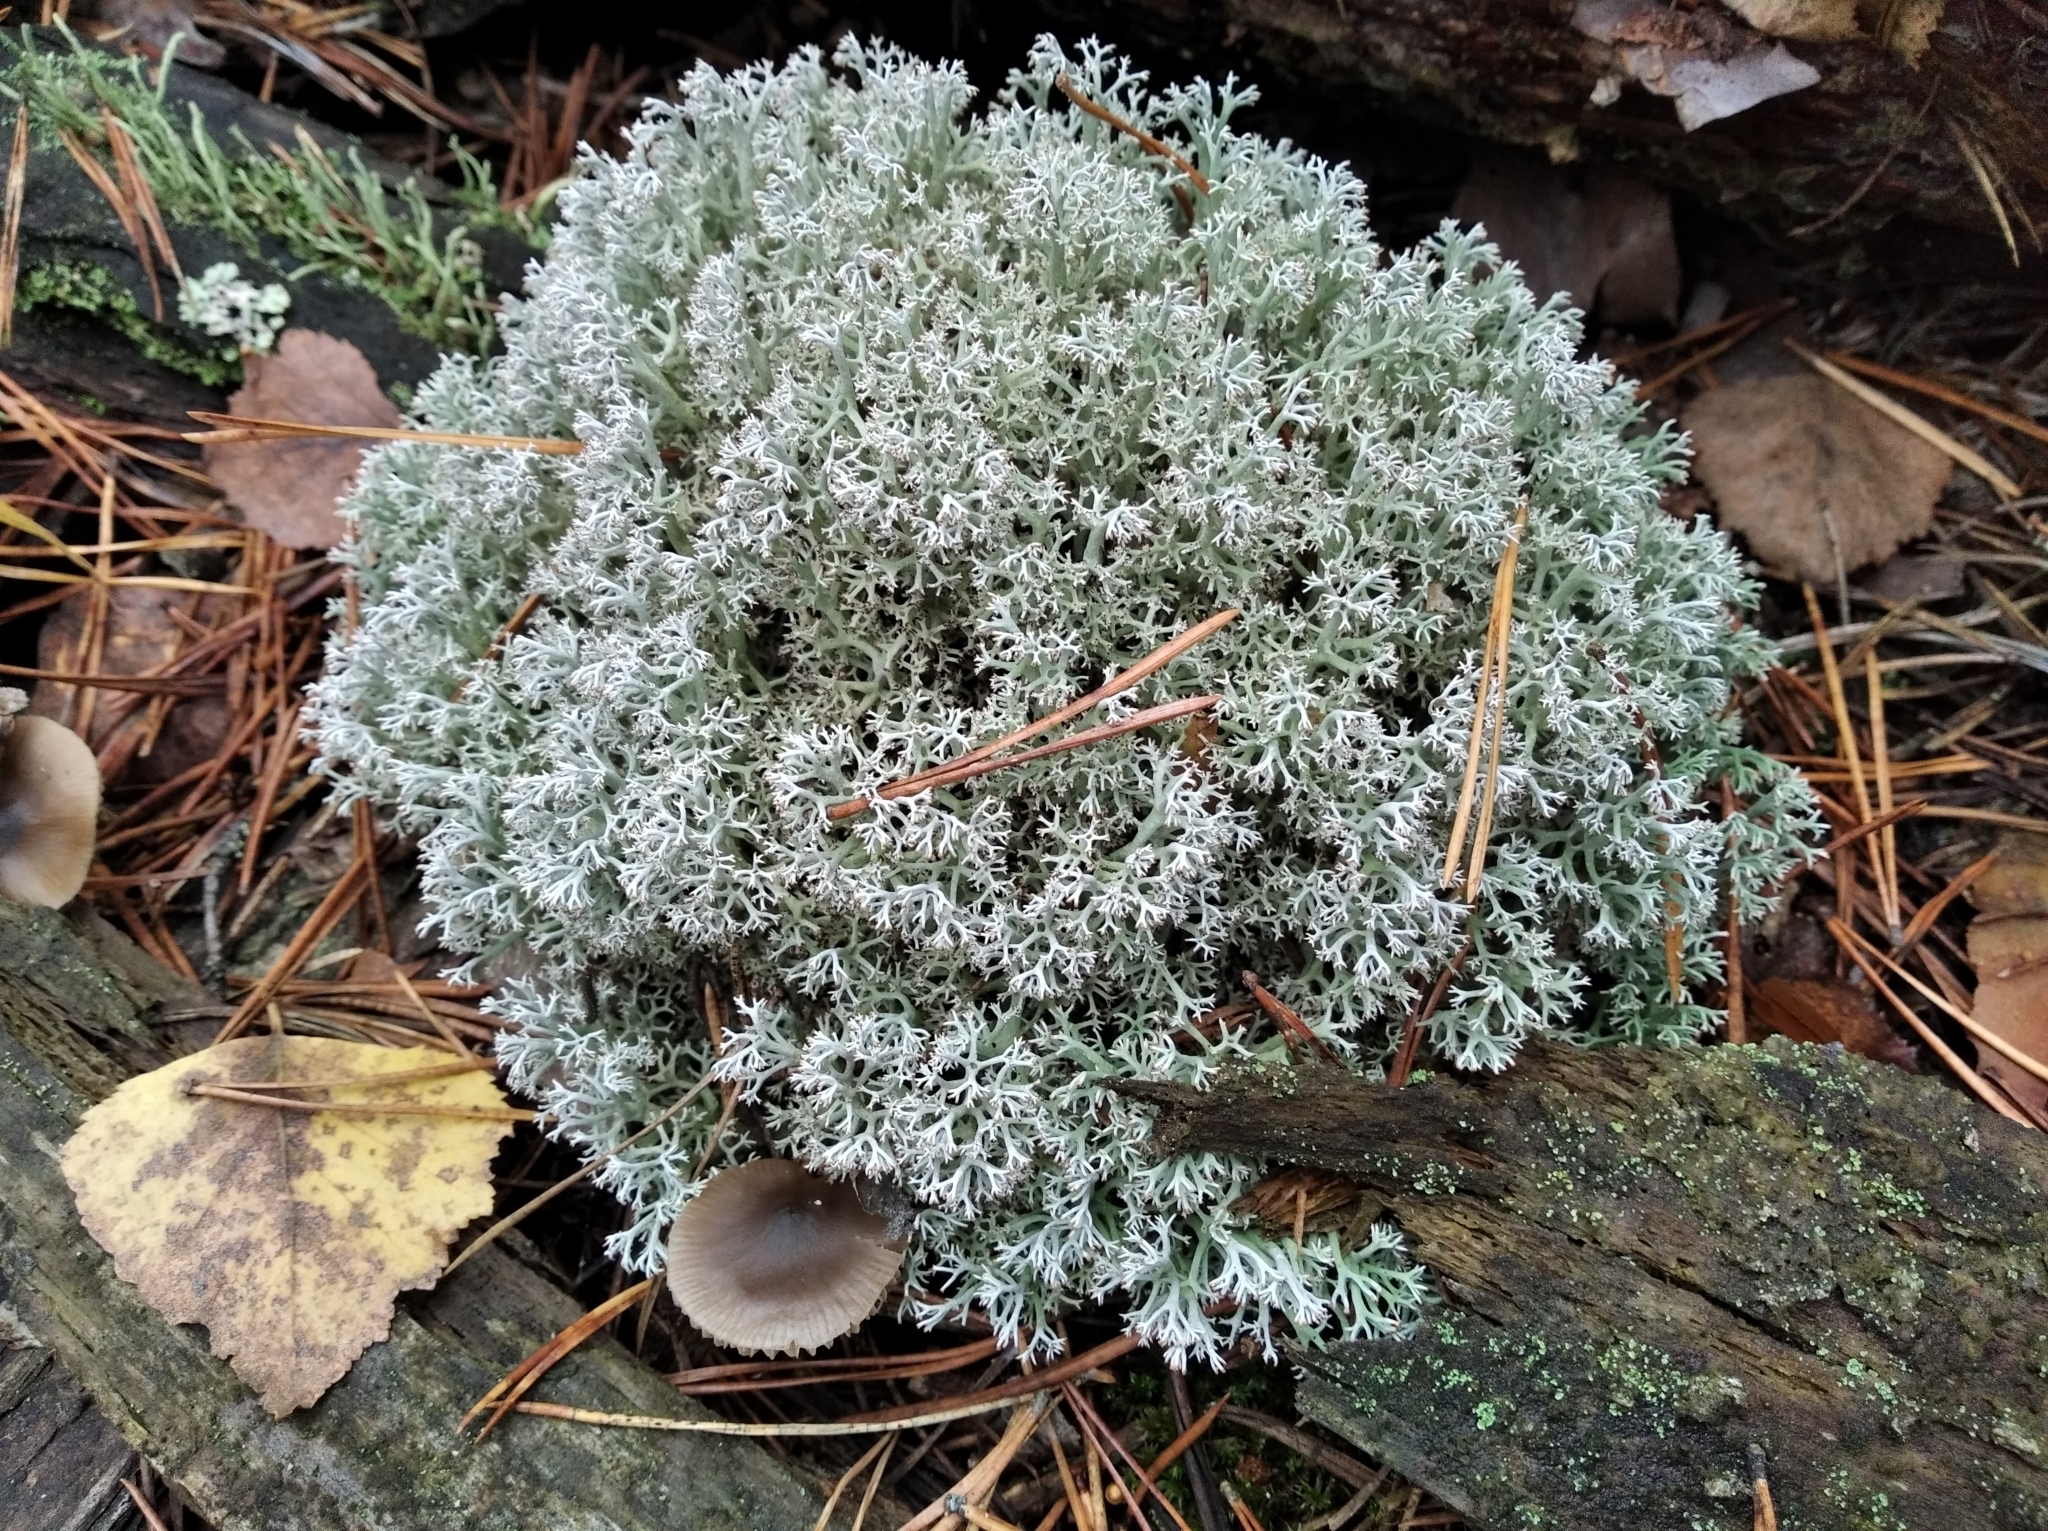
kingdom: Fungi
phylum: Ascomycota
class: Lecanoromycetes
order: Lecanorales
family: Cladoniaceae
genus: Cladonia
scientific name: Cladonia rangiferina
